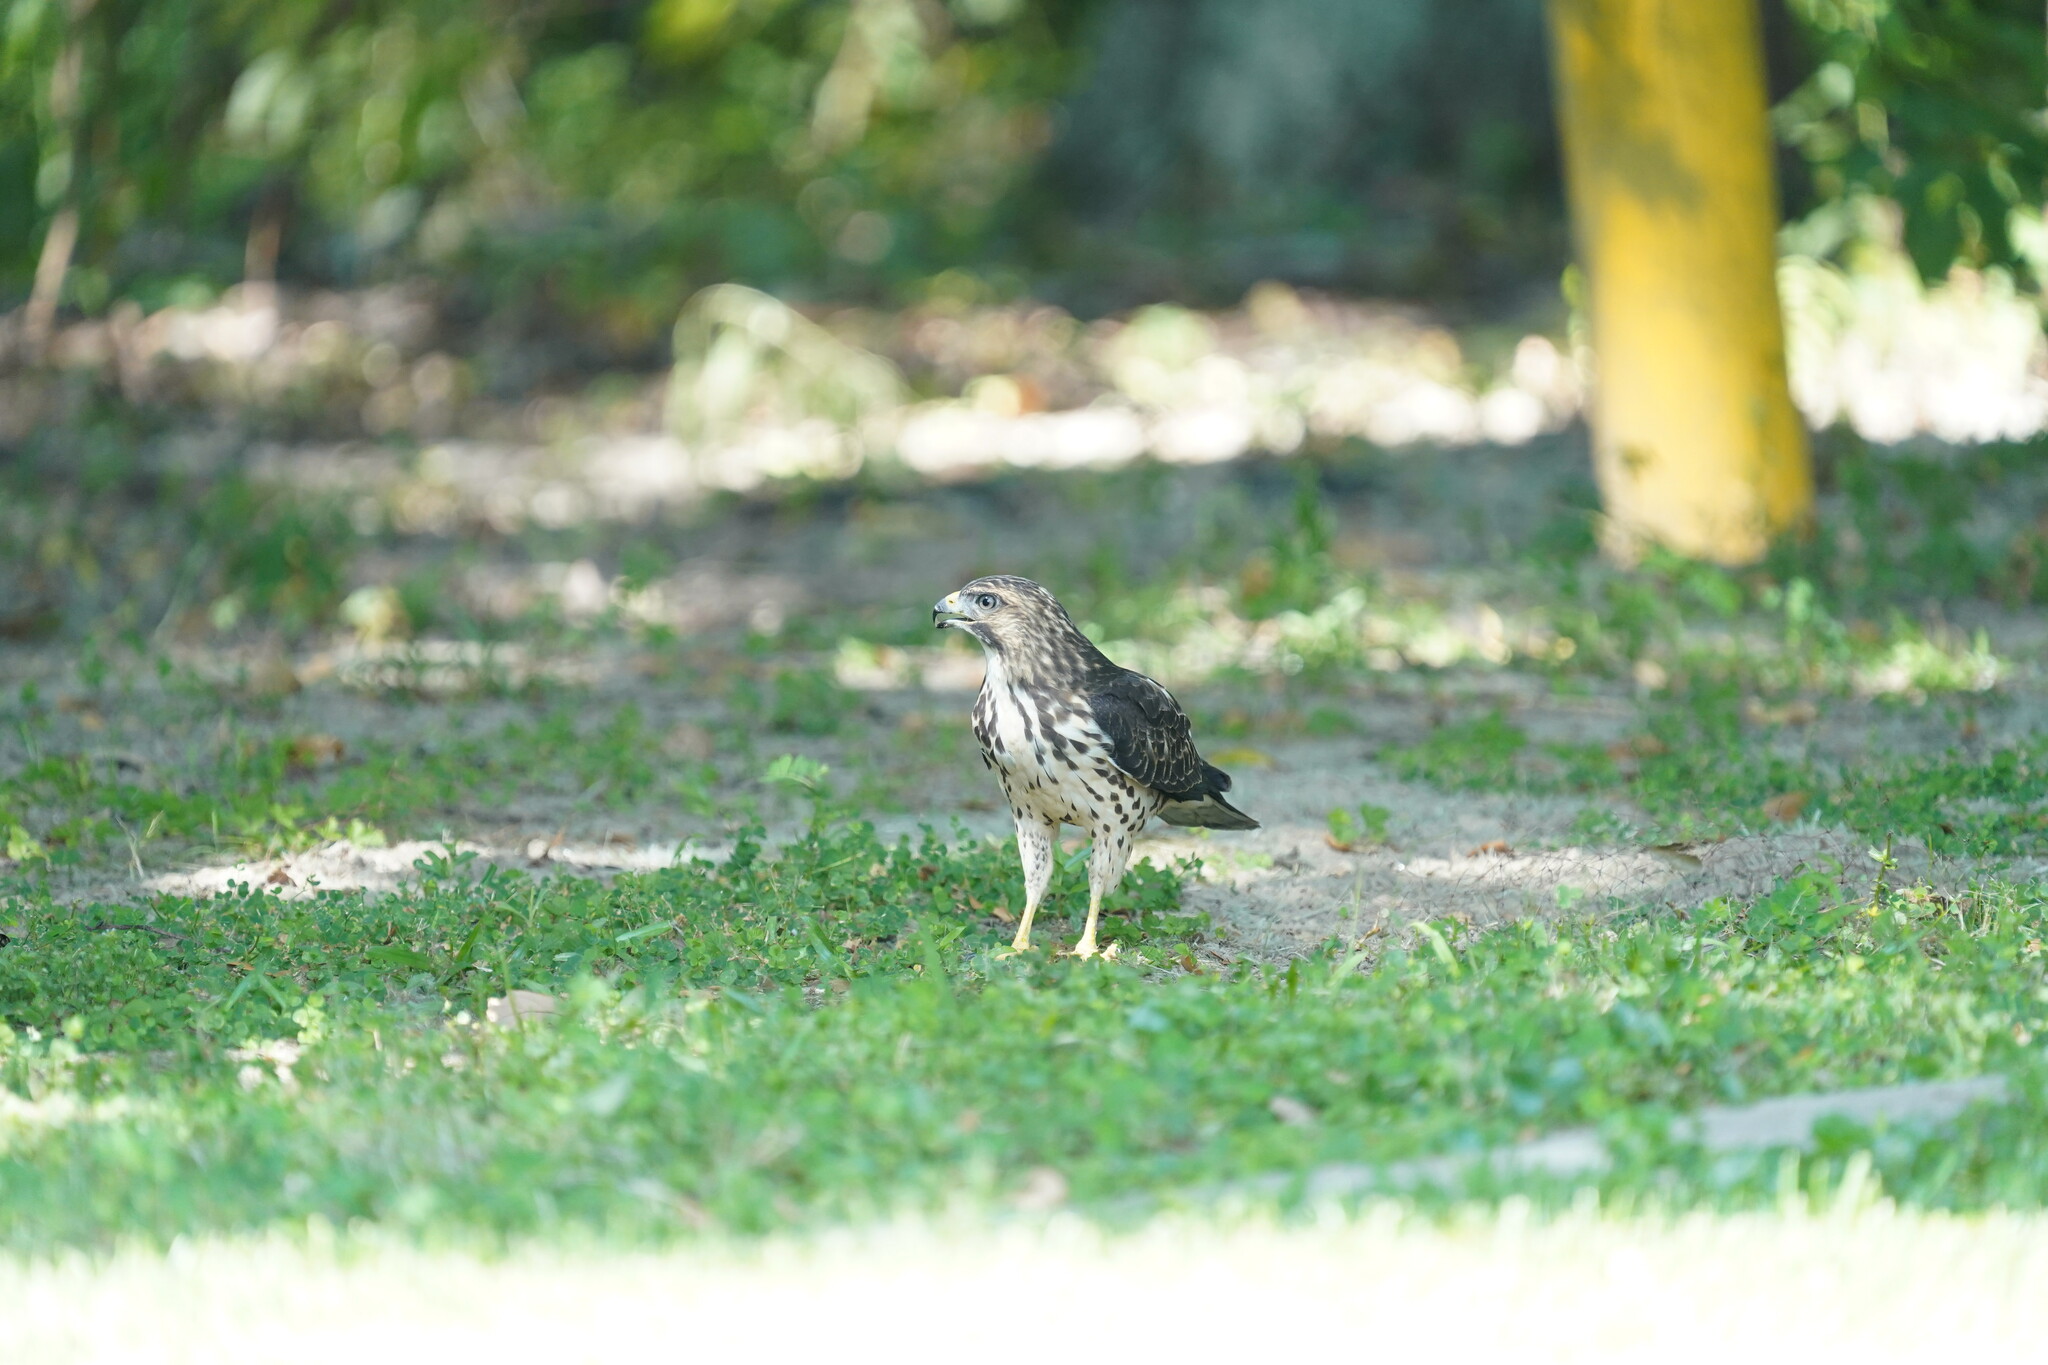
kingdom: Animalia
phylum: Chordata
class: Aves
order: Accipitriformes
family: Accipitridae
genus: Buteo
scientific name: Buteo platypterus
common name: Broad-winged hawk
